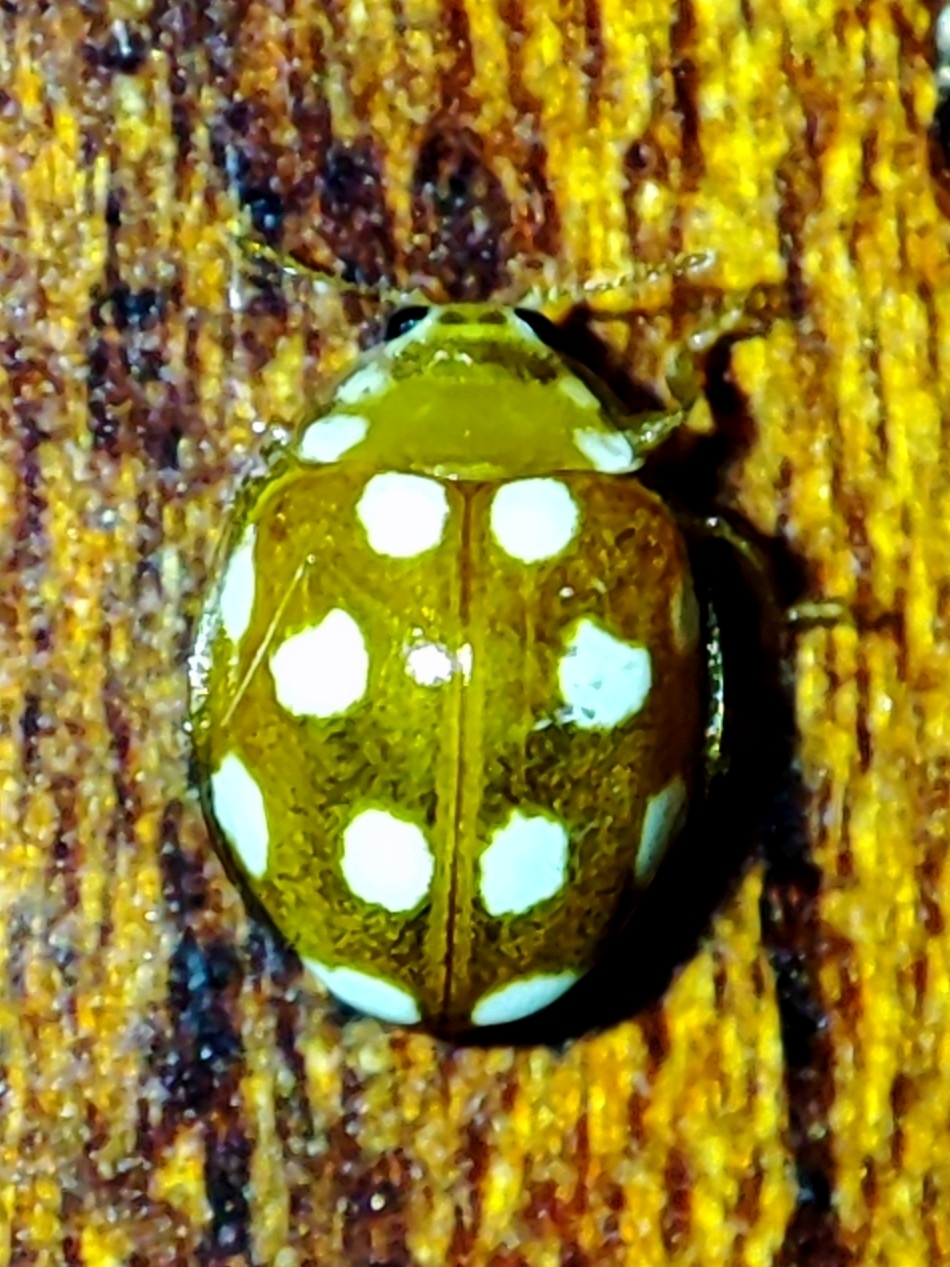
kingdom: Animalia
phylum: Arthropoda
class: Insecta
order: Coleoptera
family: Coccinellidae
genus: Vibidia
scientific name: Vibidia duodecimguttata
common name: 12-spot ladybird
